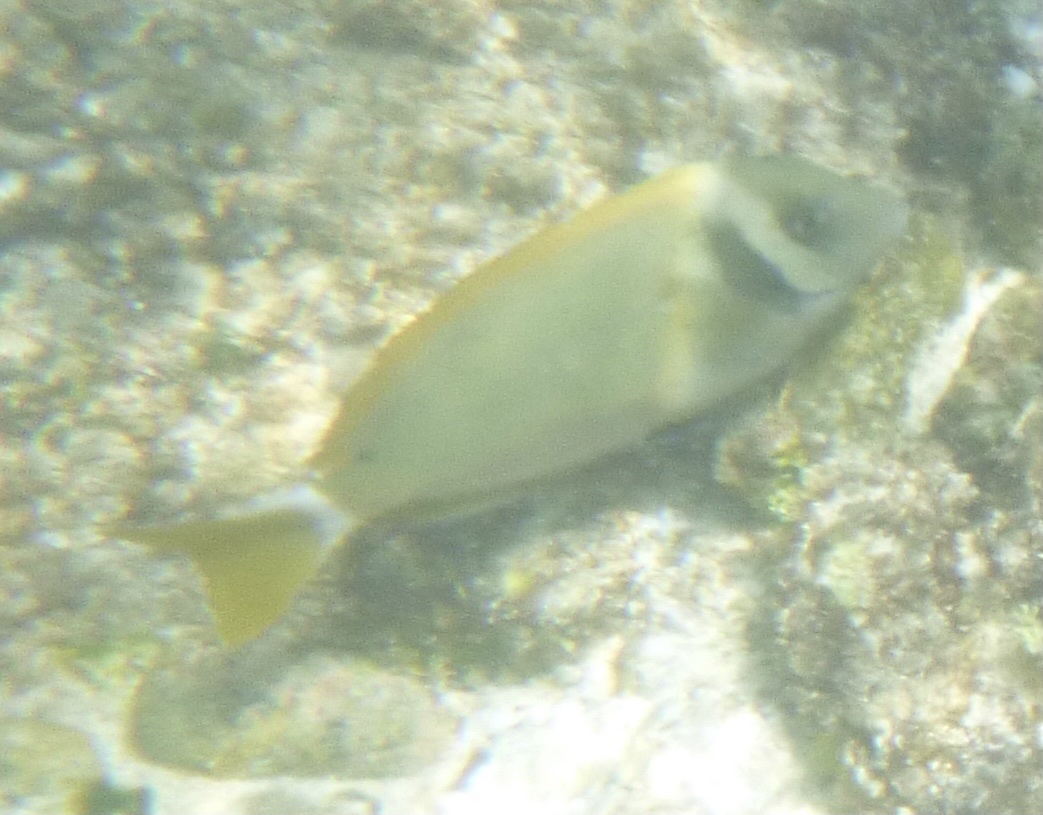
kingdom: Animalia
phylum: Chordata
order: Perciformes
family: Acanthuridae
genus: Acanthurus
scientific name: Acanthurus leucopareius
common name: Head-band surgeonfish
